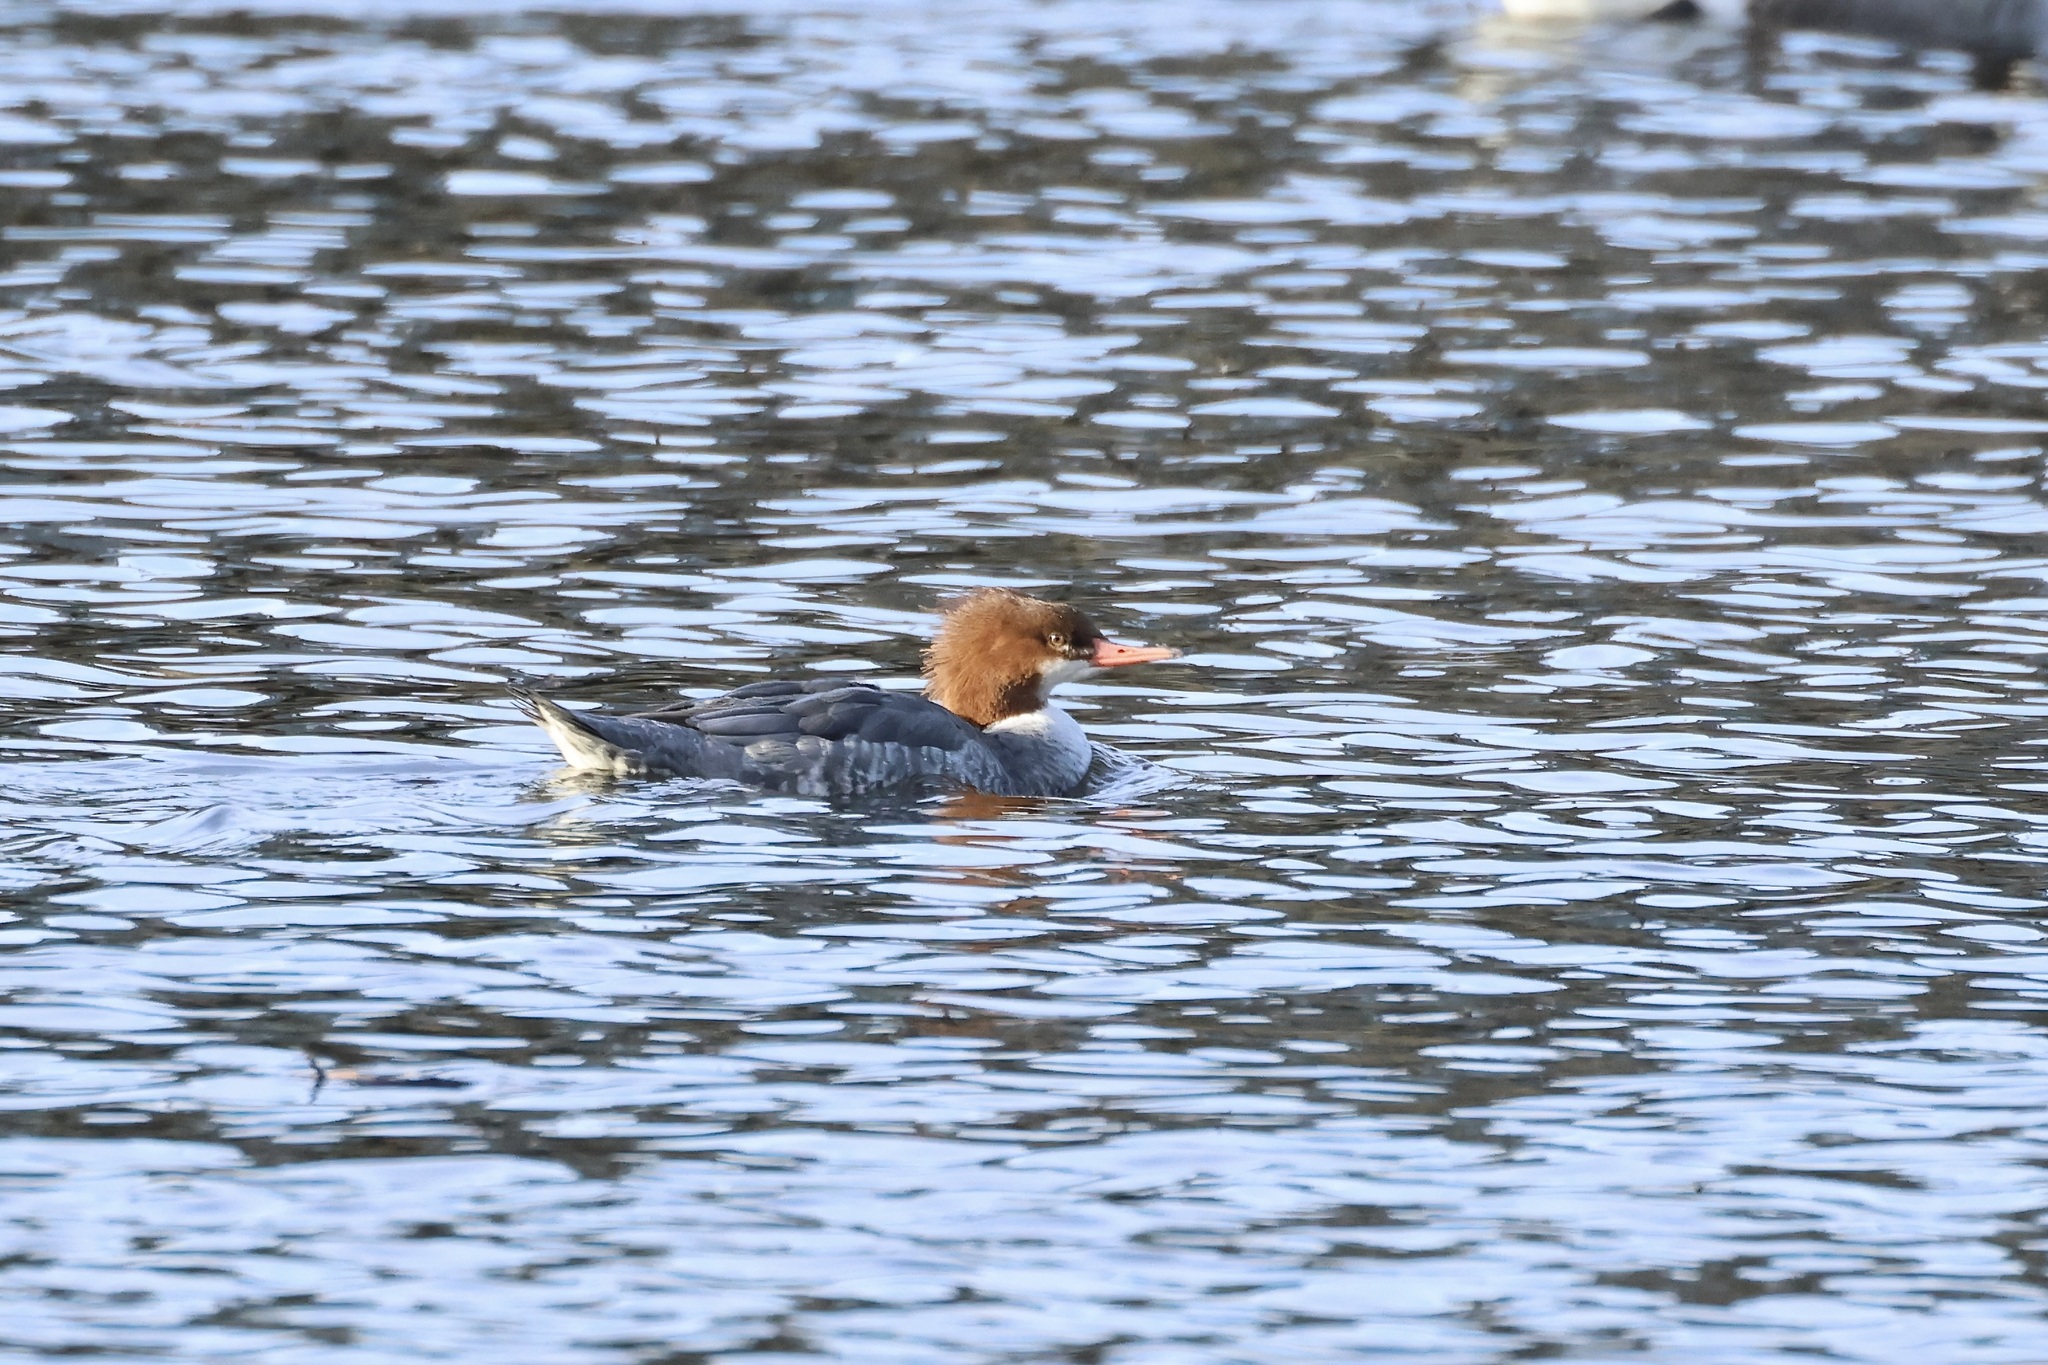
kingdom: Animalia
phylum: Chordata
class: Aves
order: Anseriformes
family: Anatidae
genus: Mergus
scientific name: Mergus merganser
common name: Common merganser
